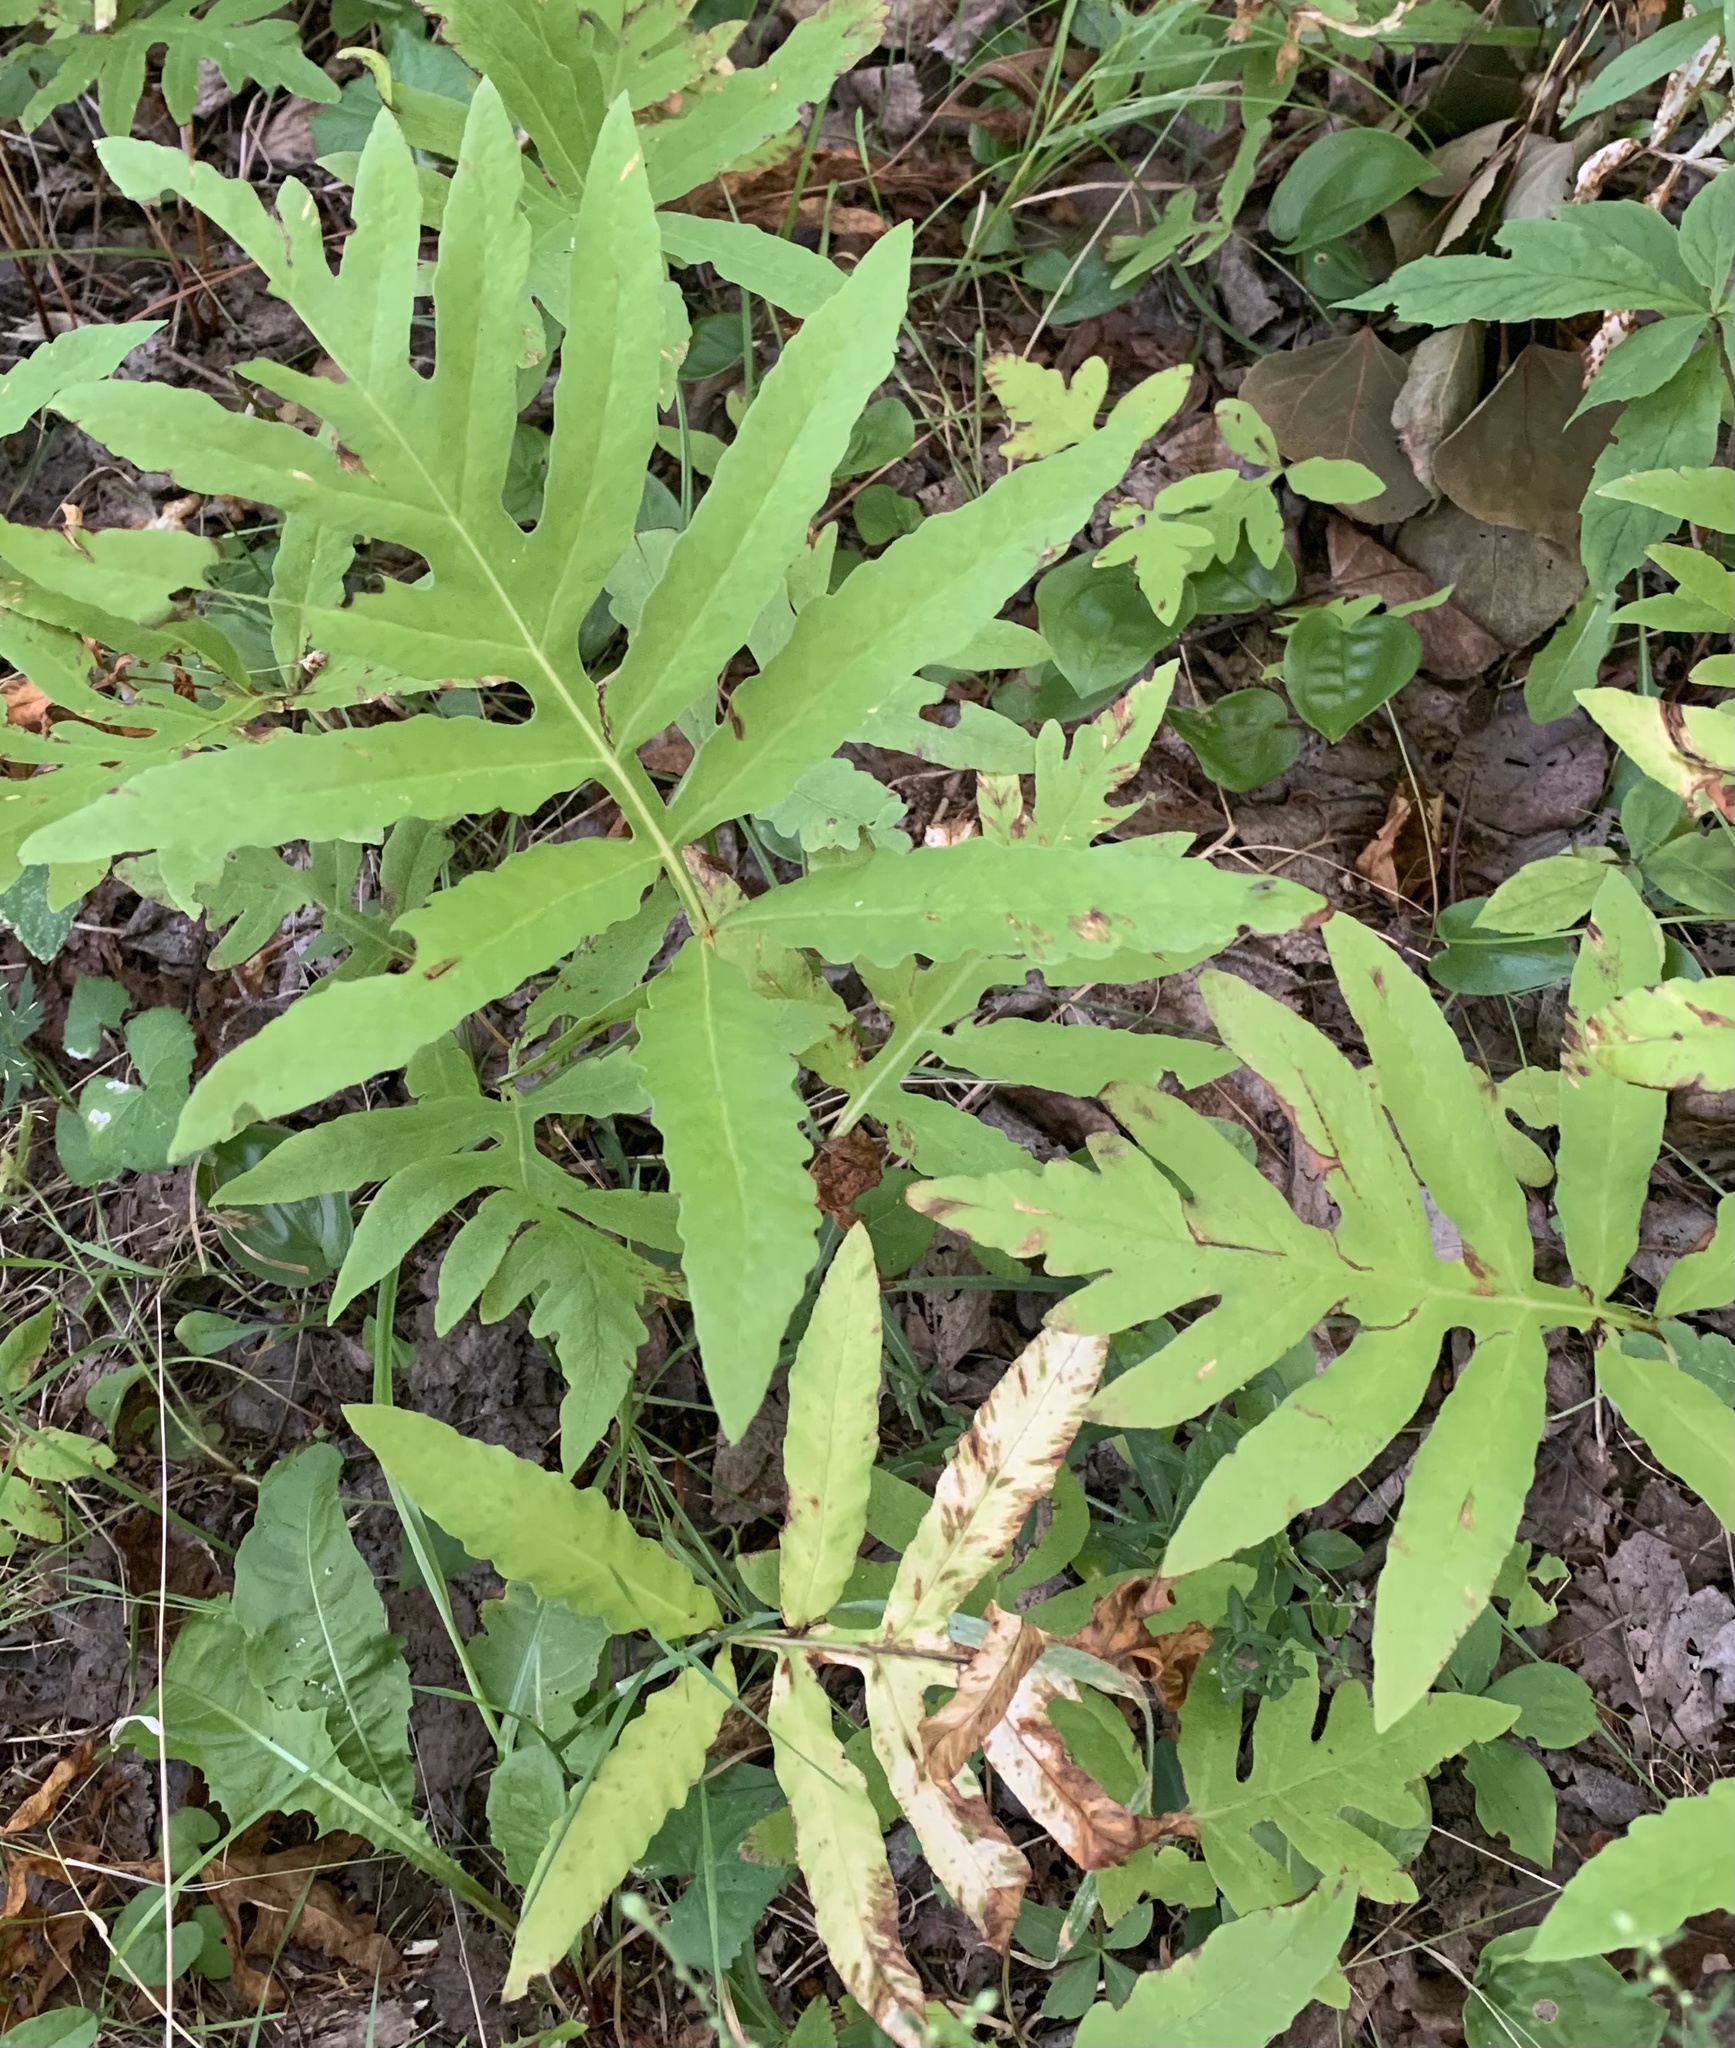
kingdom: Plantae
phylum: Tracheophyta
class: Polypodiopsida
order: Polypodiales
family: Onocleaceae
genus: Onoclea
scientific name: Onoclea sensibilis
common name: Sensitive fern
